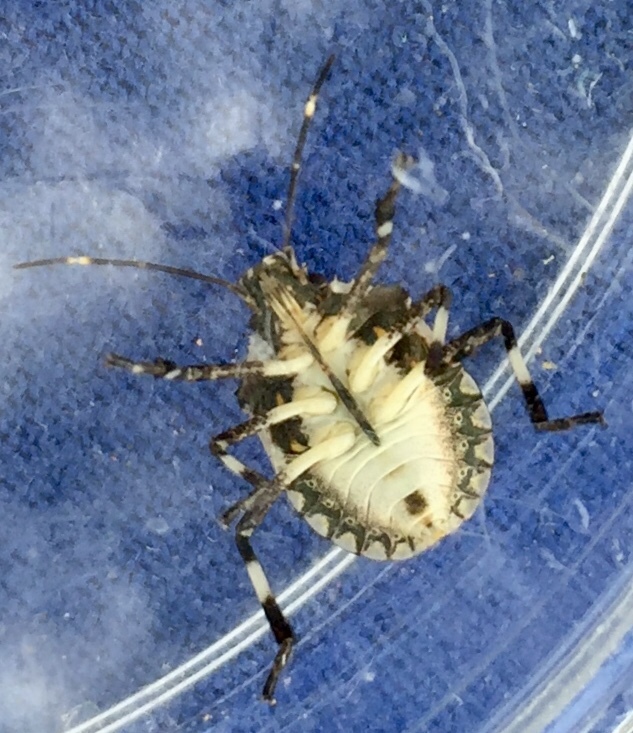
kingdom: Animalia
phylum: Arthropoda
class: Insecta
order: Hemiptera
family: Pentatomidae
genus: Halyomorpha
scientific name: Halyomorpha halys
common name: Brown marmorated stink bug
